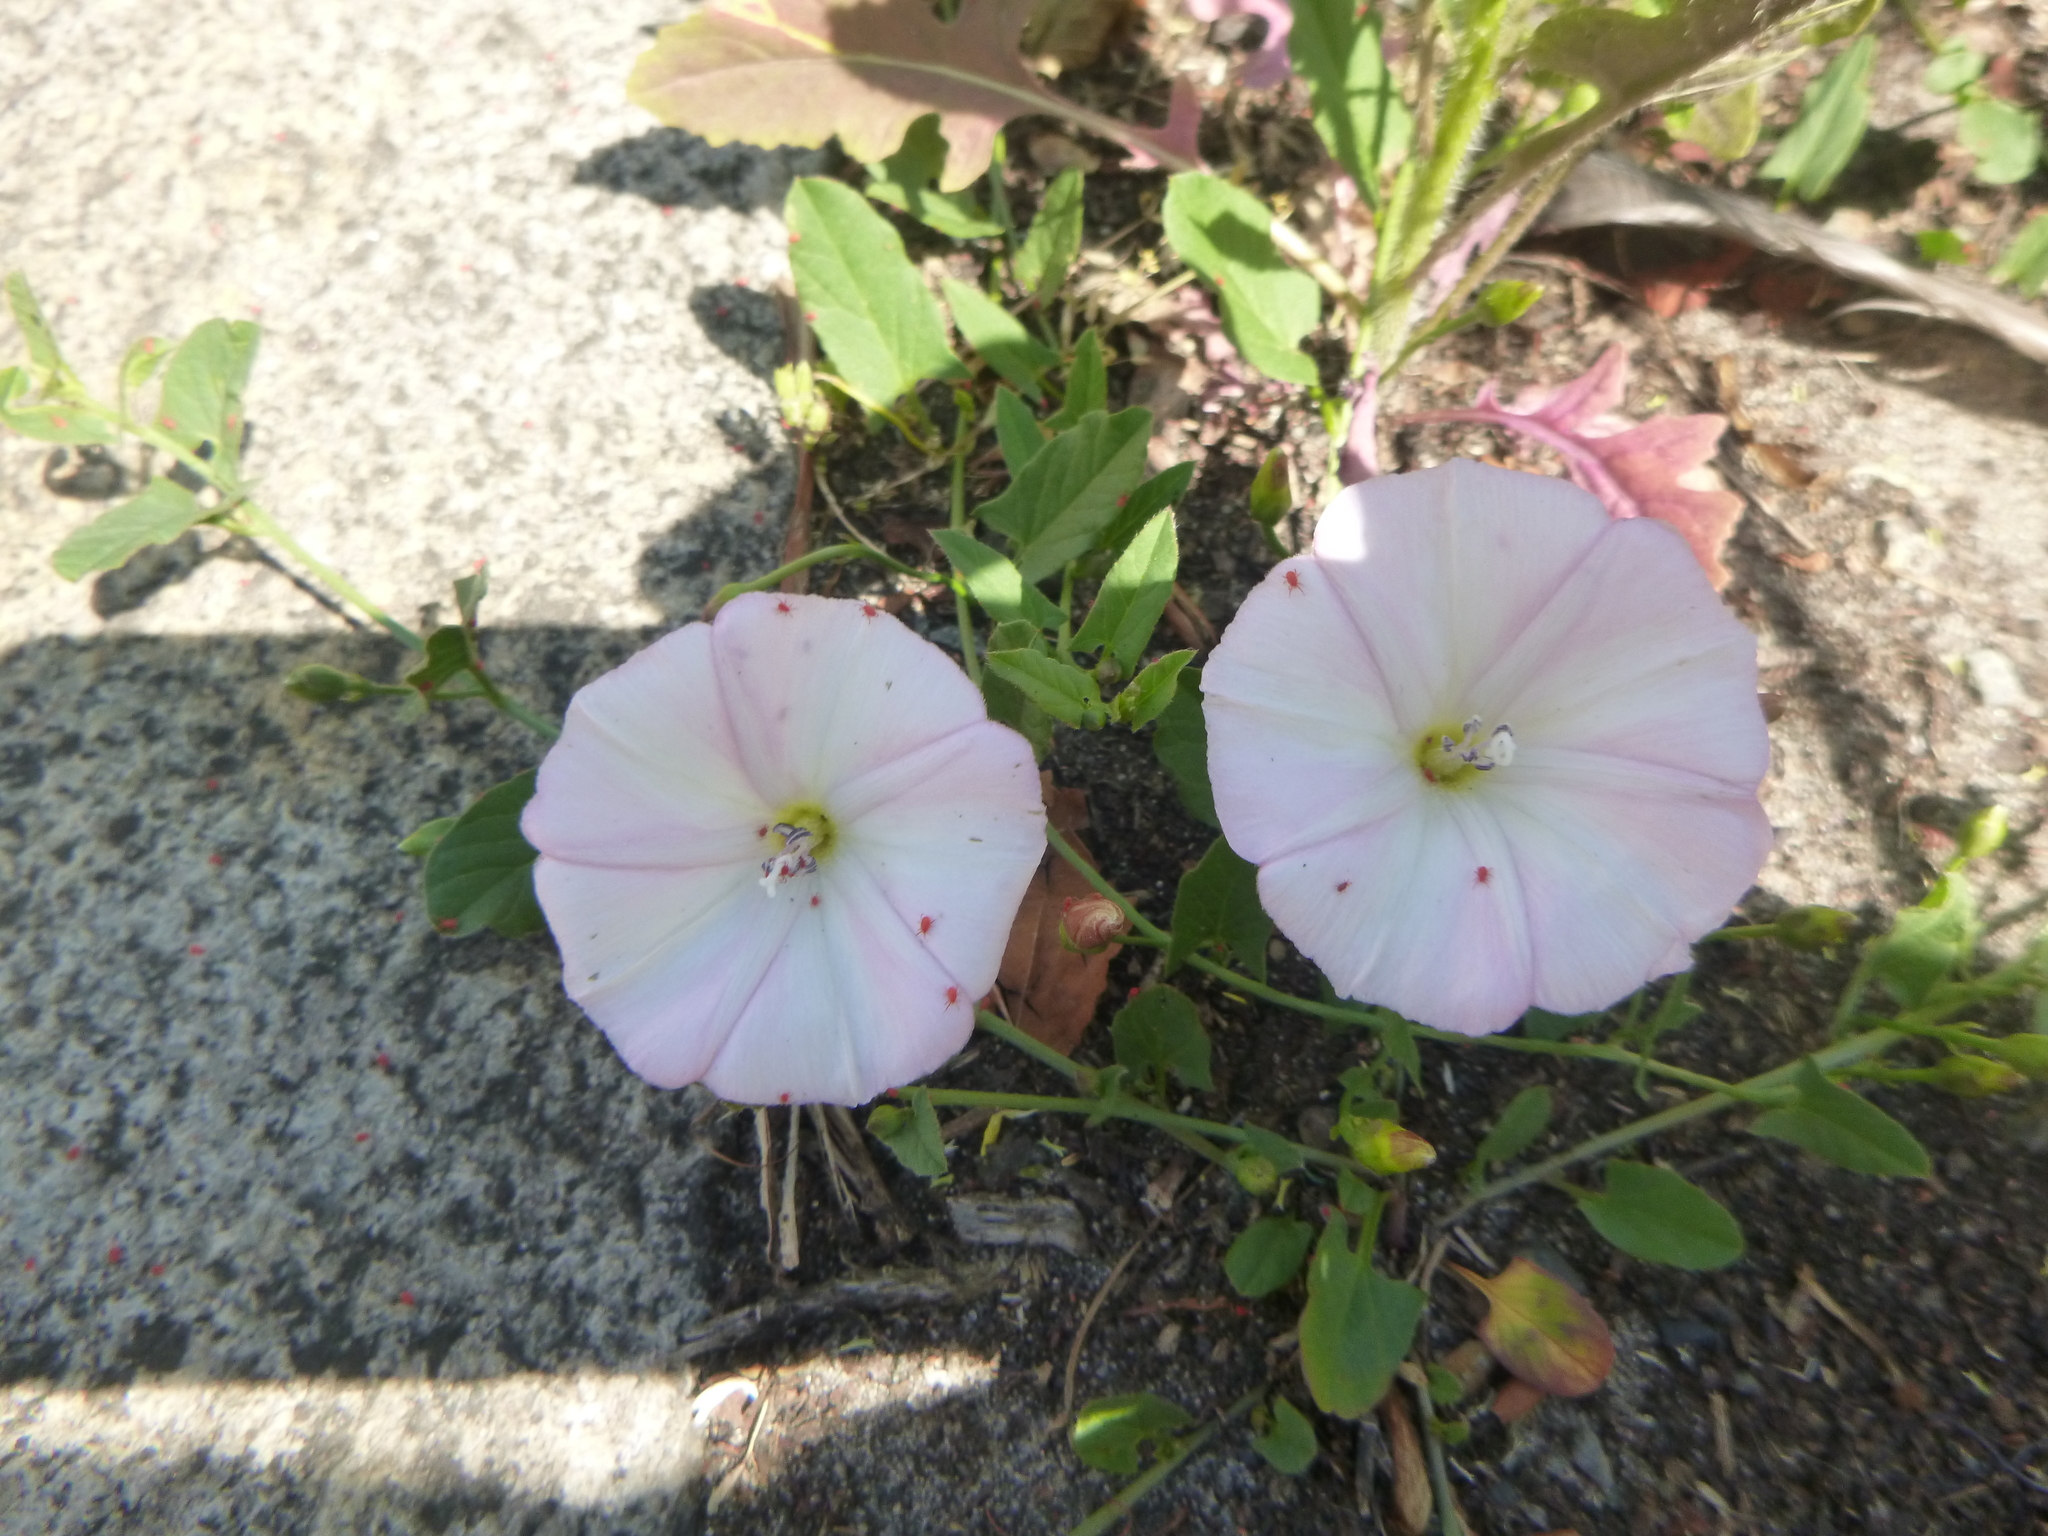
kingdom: Plantae
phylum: Tracheophyta
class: Magnoliopsida
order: Solanales
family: Convolvulaceae
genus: Convolvulus
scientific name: Convolvulus arvensis
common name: Field bindweed
